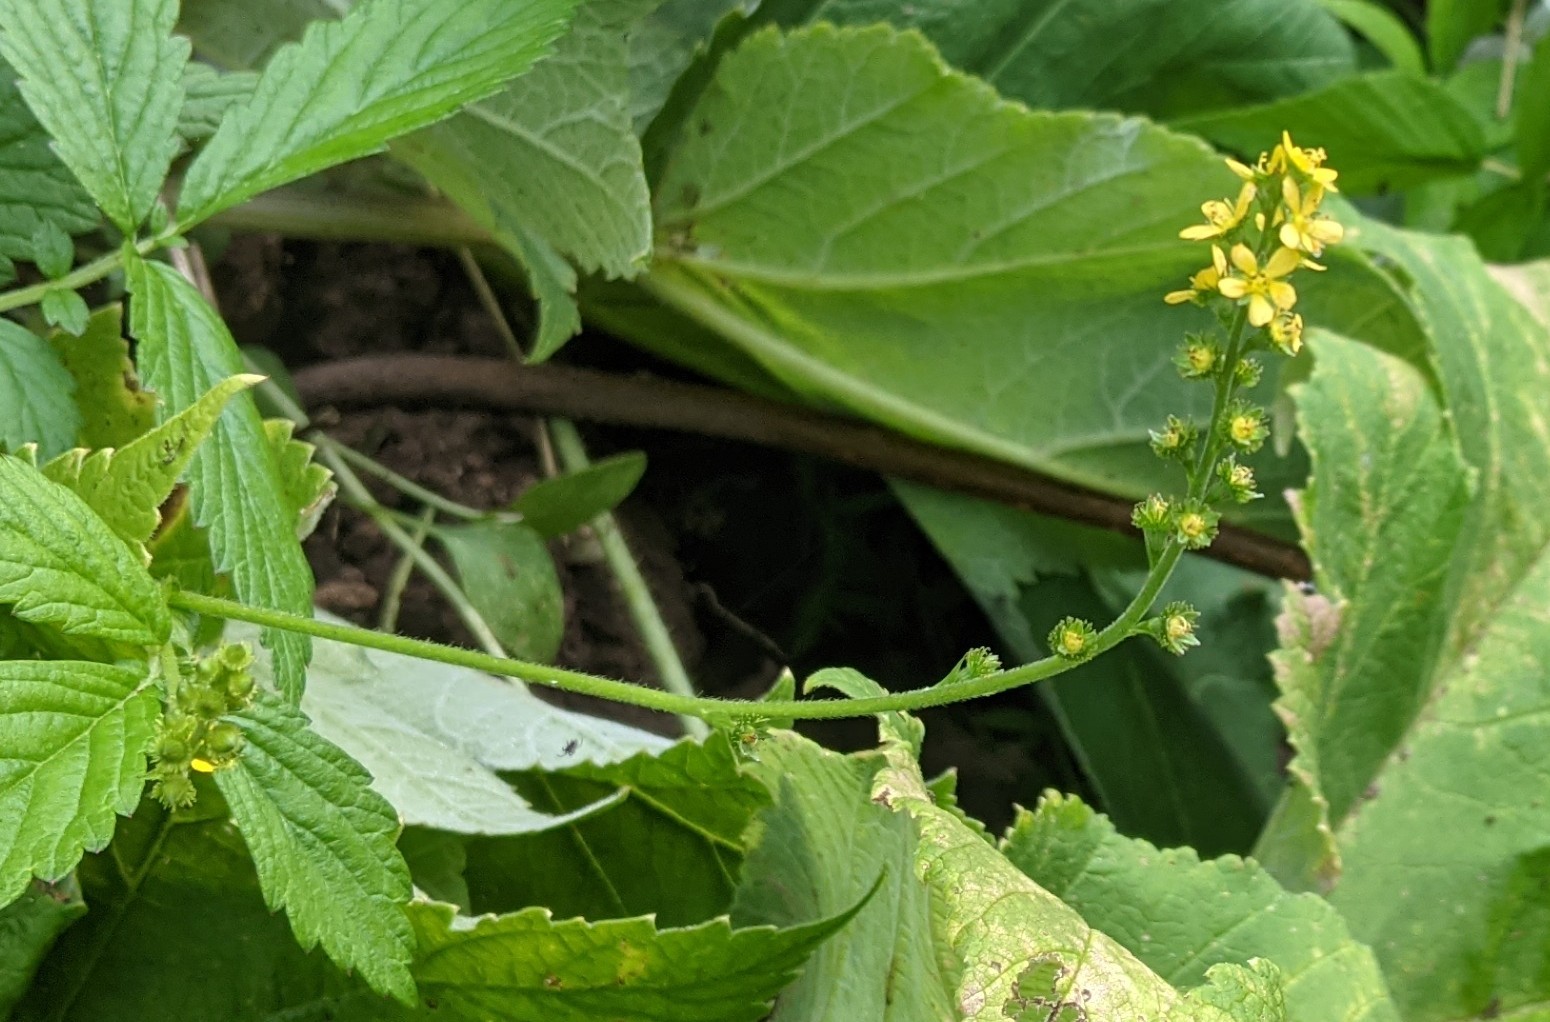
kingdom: Plantae
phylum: Tracheophyta
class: Magnoliopsida
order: Rosales
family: Rosaceae
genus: Agrimonia
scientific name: Agrimonia striata
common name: Britton's agrimony
